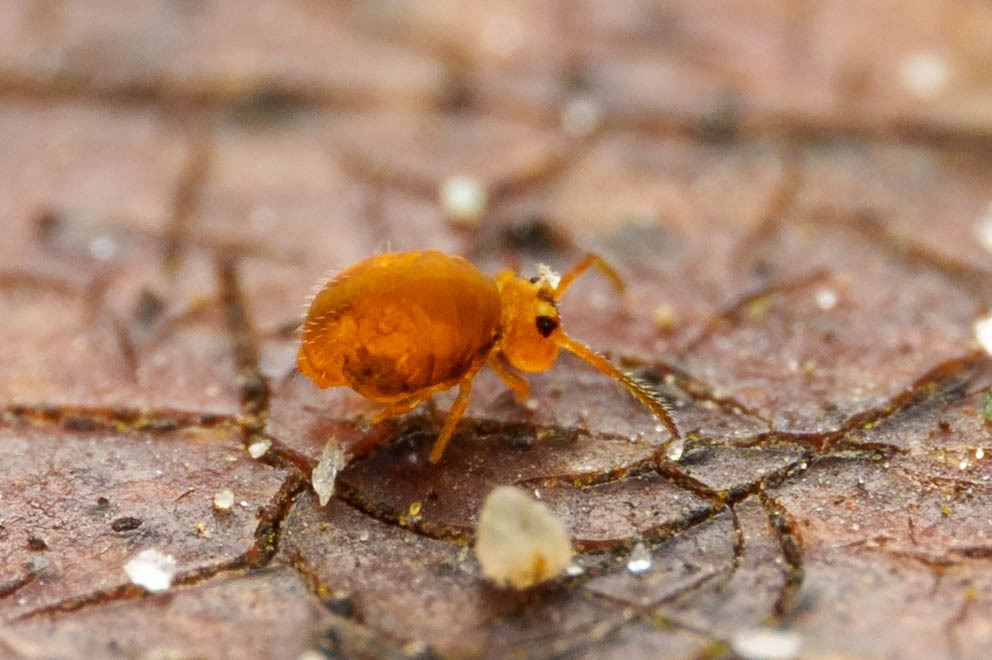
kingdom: Animalia
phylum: Arthropoda
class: Collembola
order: Symphypleona
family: Katiannidae
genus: Sminthurinus
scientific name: Sminthurinus henshawi
